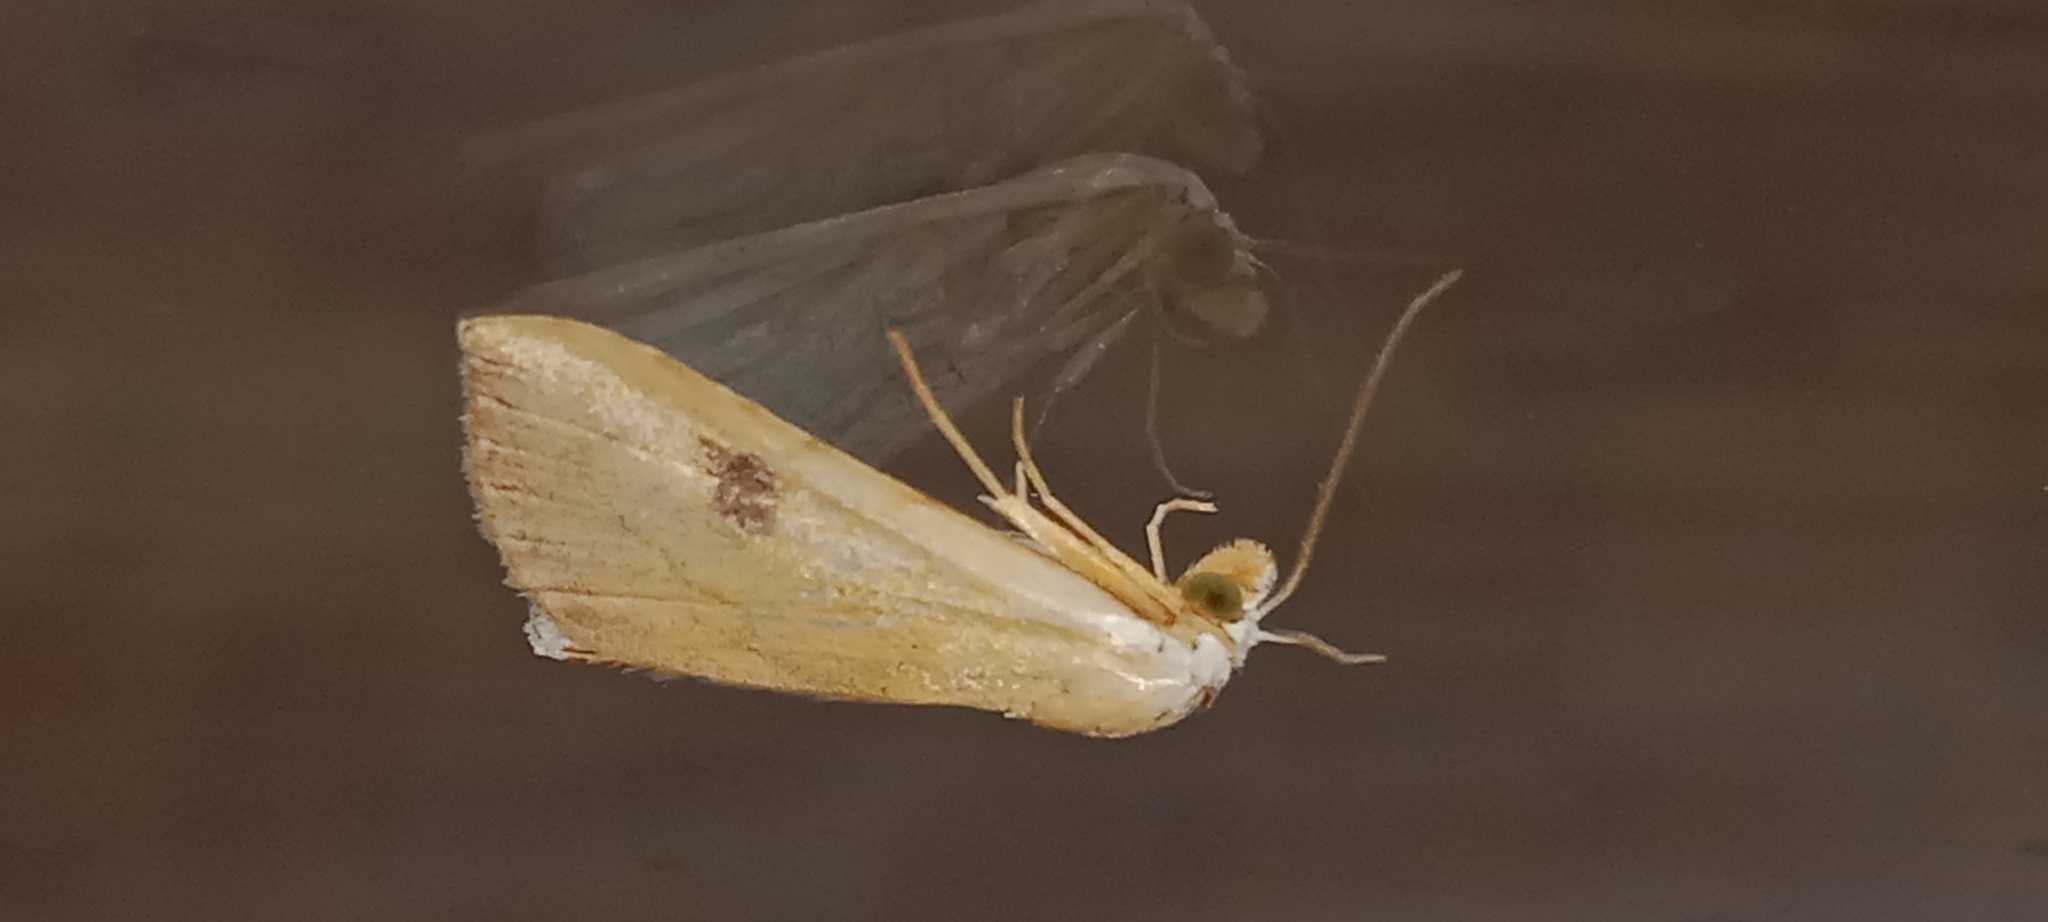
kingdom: Animalia
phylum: Arthropoda
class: Insecta
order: Lepidoptera
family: Erebidae
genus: Rivula
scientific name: Rivula sericealis
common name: Straw dot
